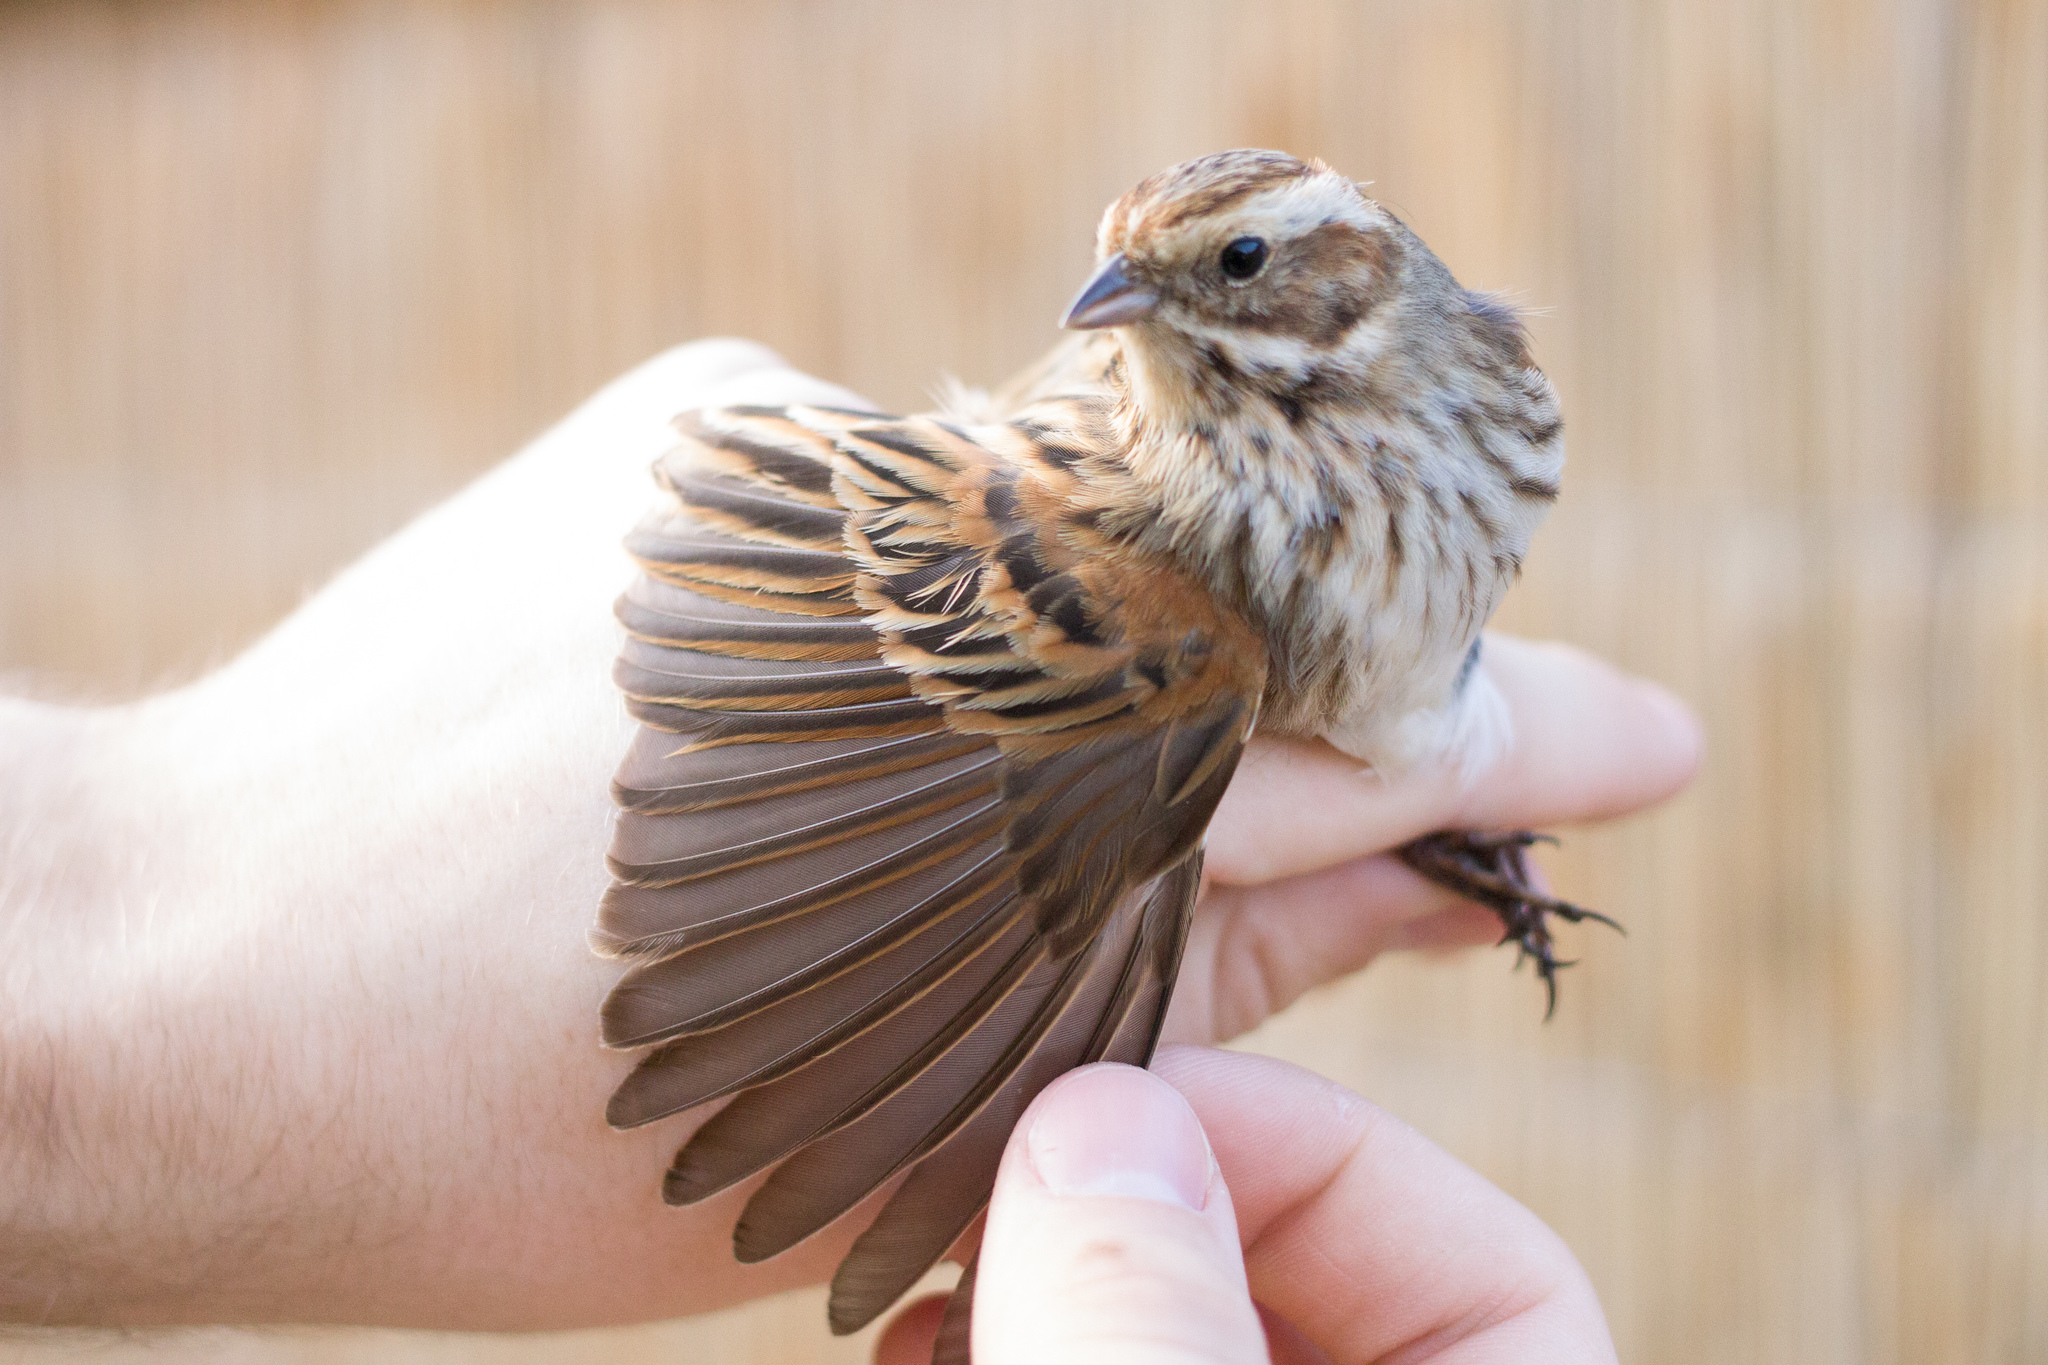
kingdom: Animalia
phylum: Chordata
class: Aves
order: Passeriformes
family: Emberizidae
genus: Emberiza
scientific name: Emberiza schoeniclus
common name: Reed bunting
